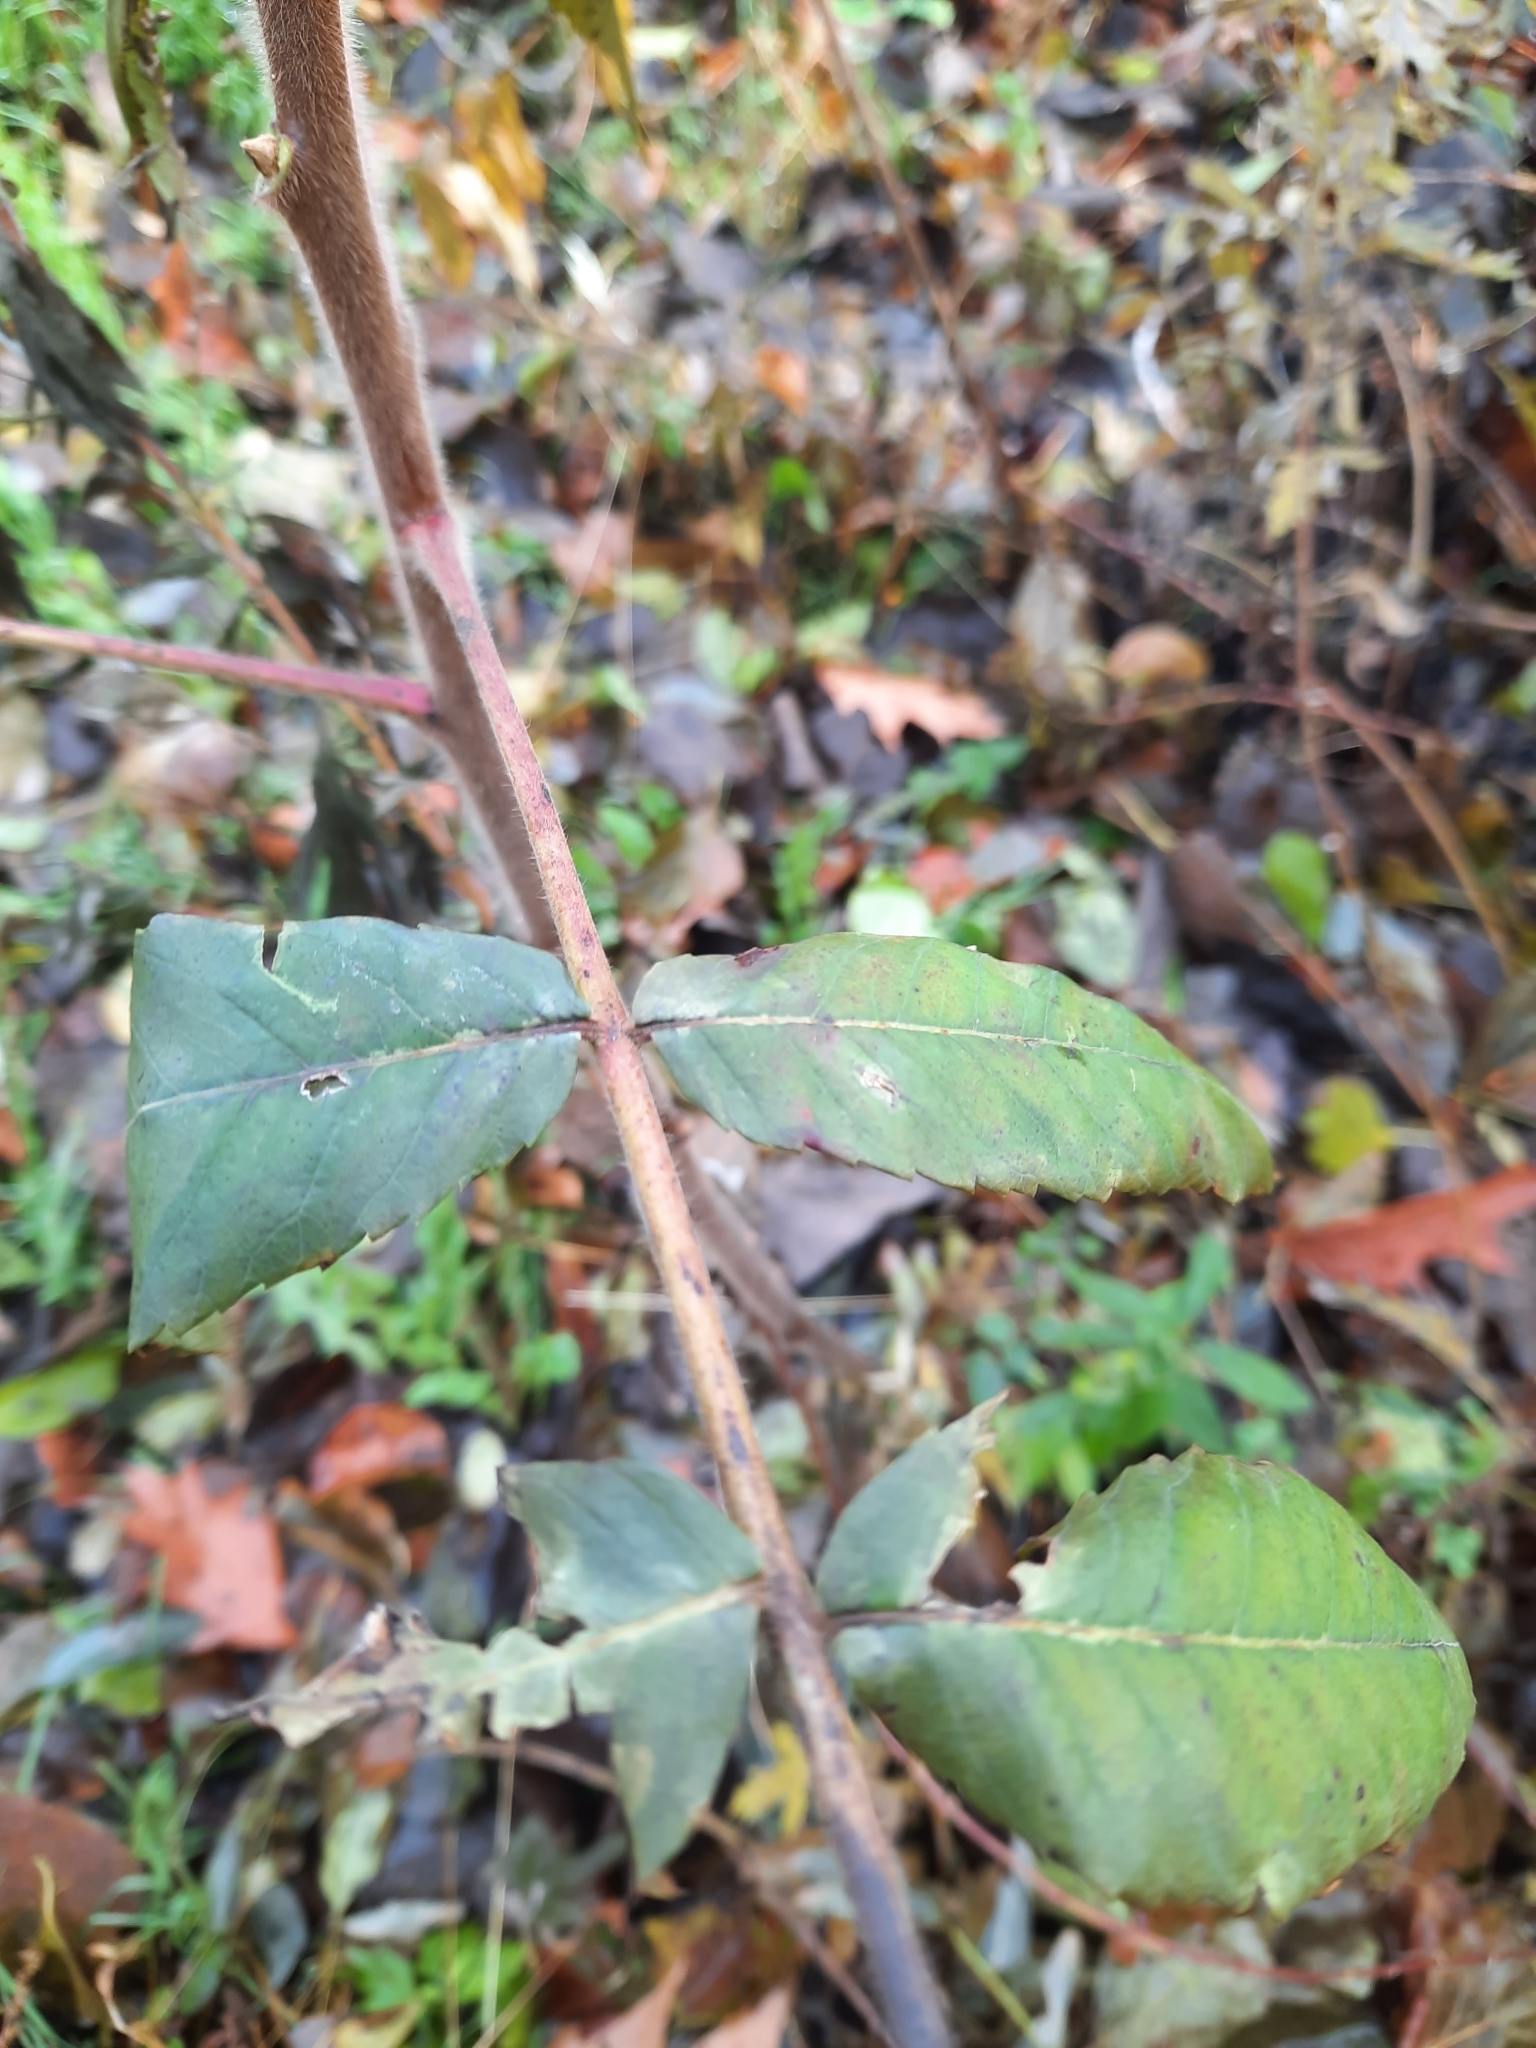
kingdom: Plantae
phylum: Tracheophyta
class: Magnoliopsida
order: Sapindales
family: Anacardiaceae
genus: Rhus
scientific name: Rhus typhina
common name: Staghorn sumac
